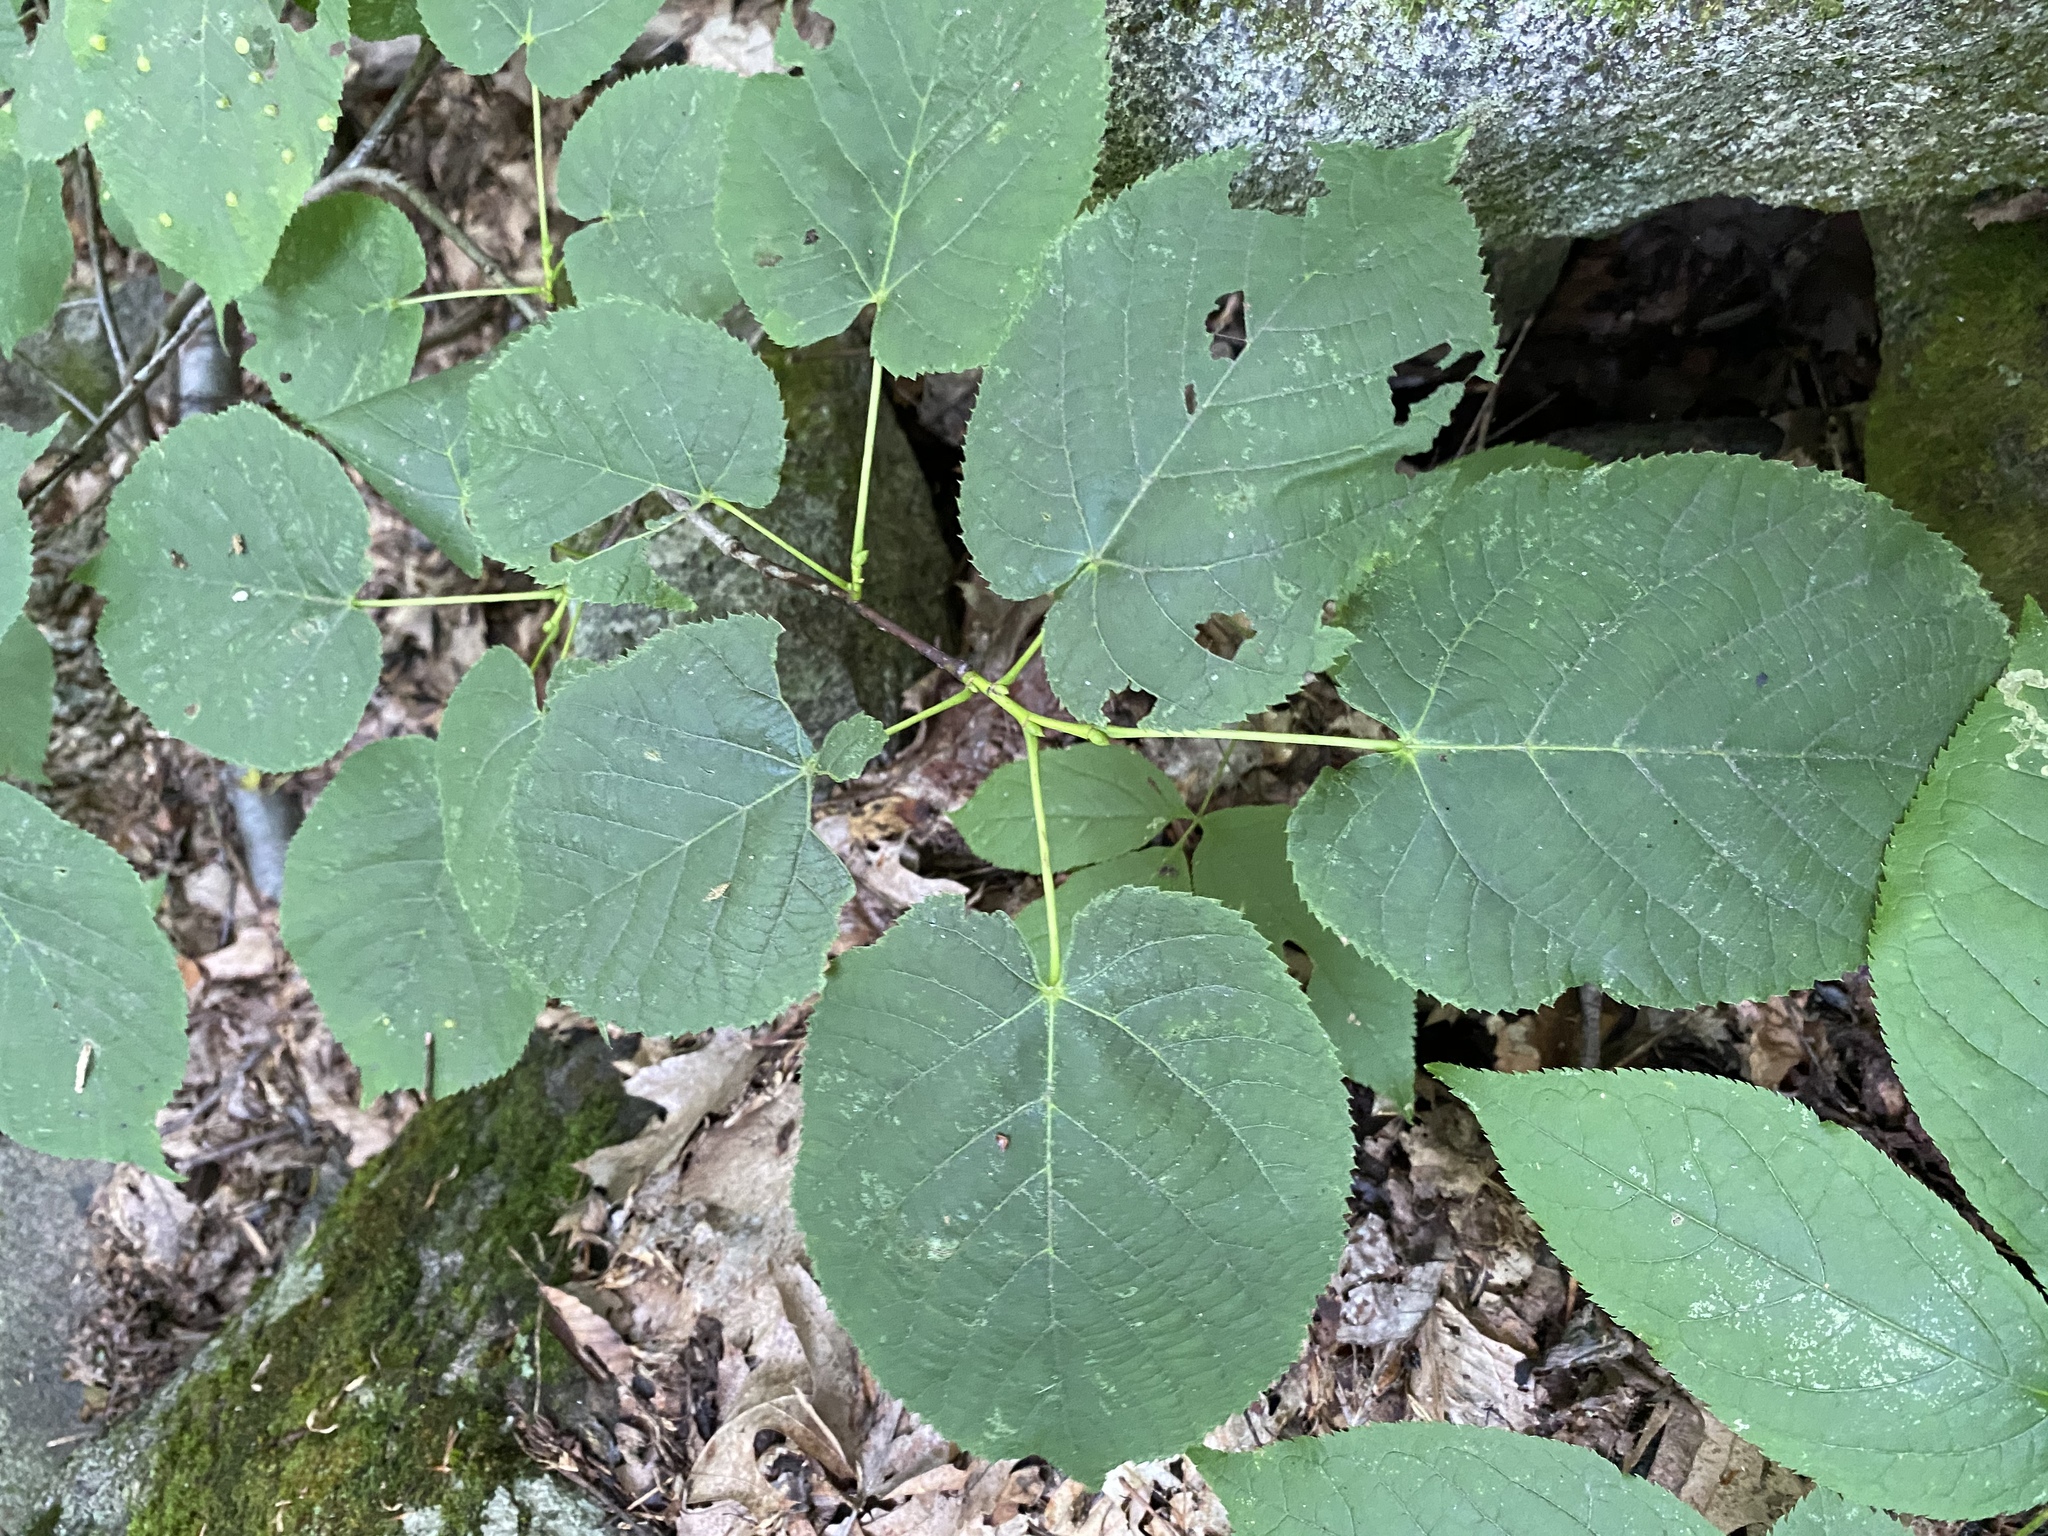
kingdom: Plantae
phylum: Tracheophyta
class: Magnoliopsida
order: Malvales
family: Malvaceae
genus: Tilia
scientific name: Tilia americana
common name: Basswood
